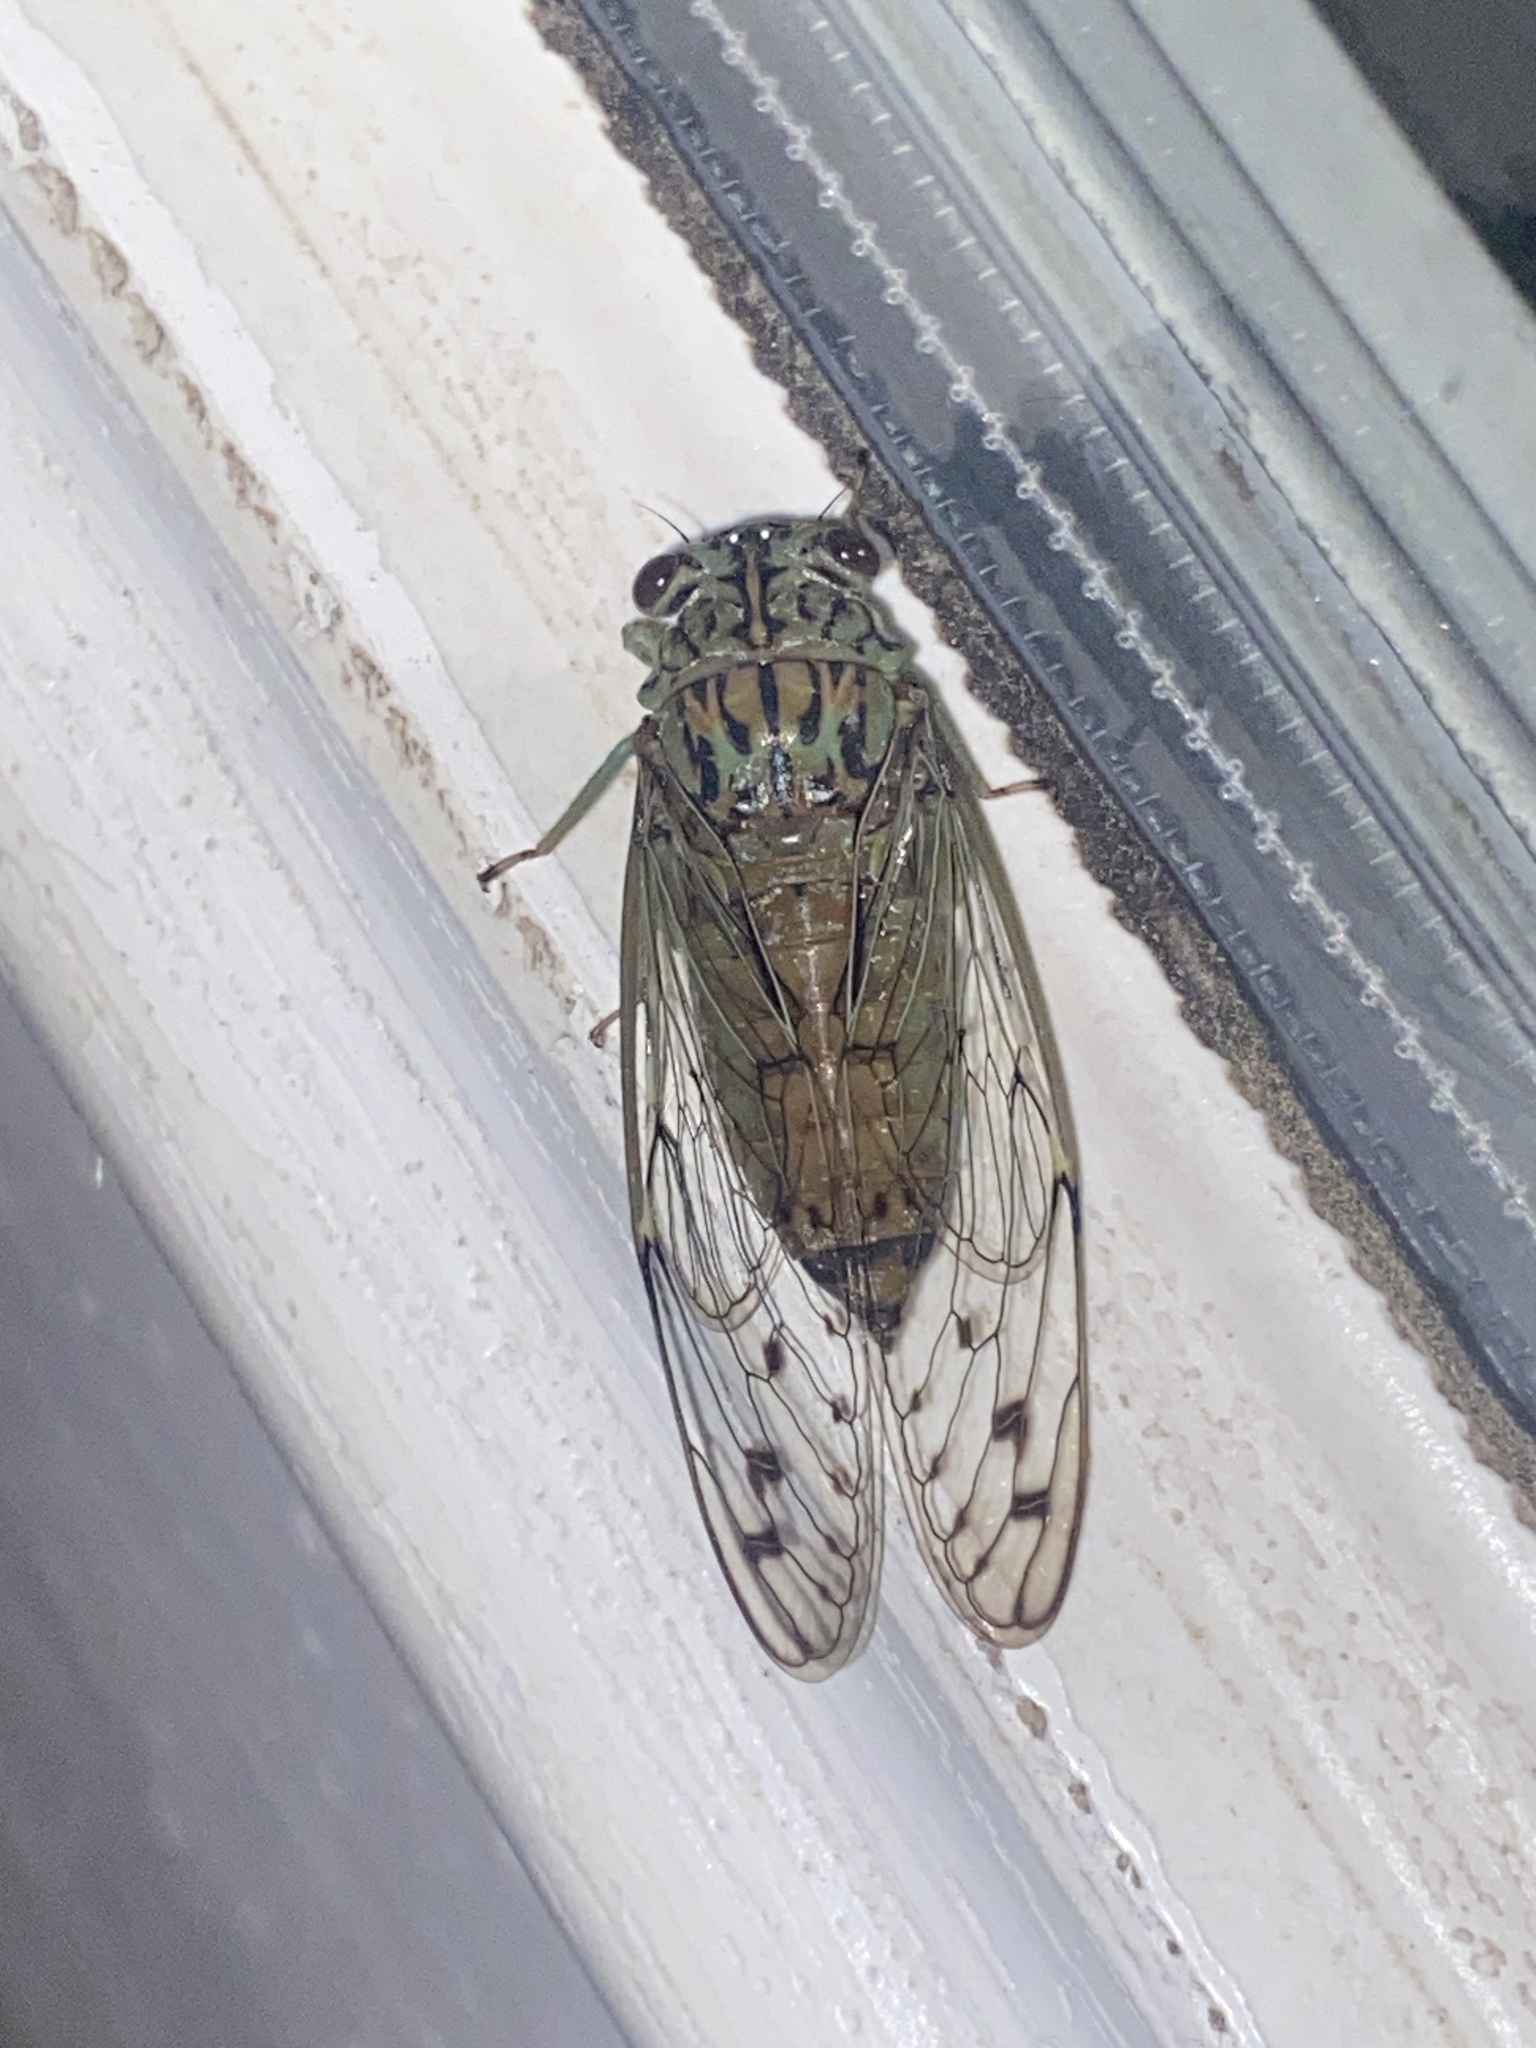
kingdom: Animalia
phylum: Arthropoda
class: Insecta
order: Hemiptera
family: Cicadidae
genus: Neocicada
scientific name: Neocicada hieroglyphica
